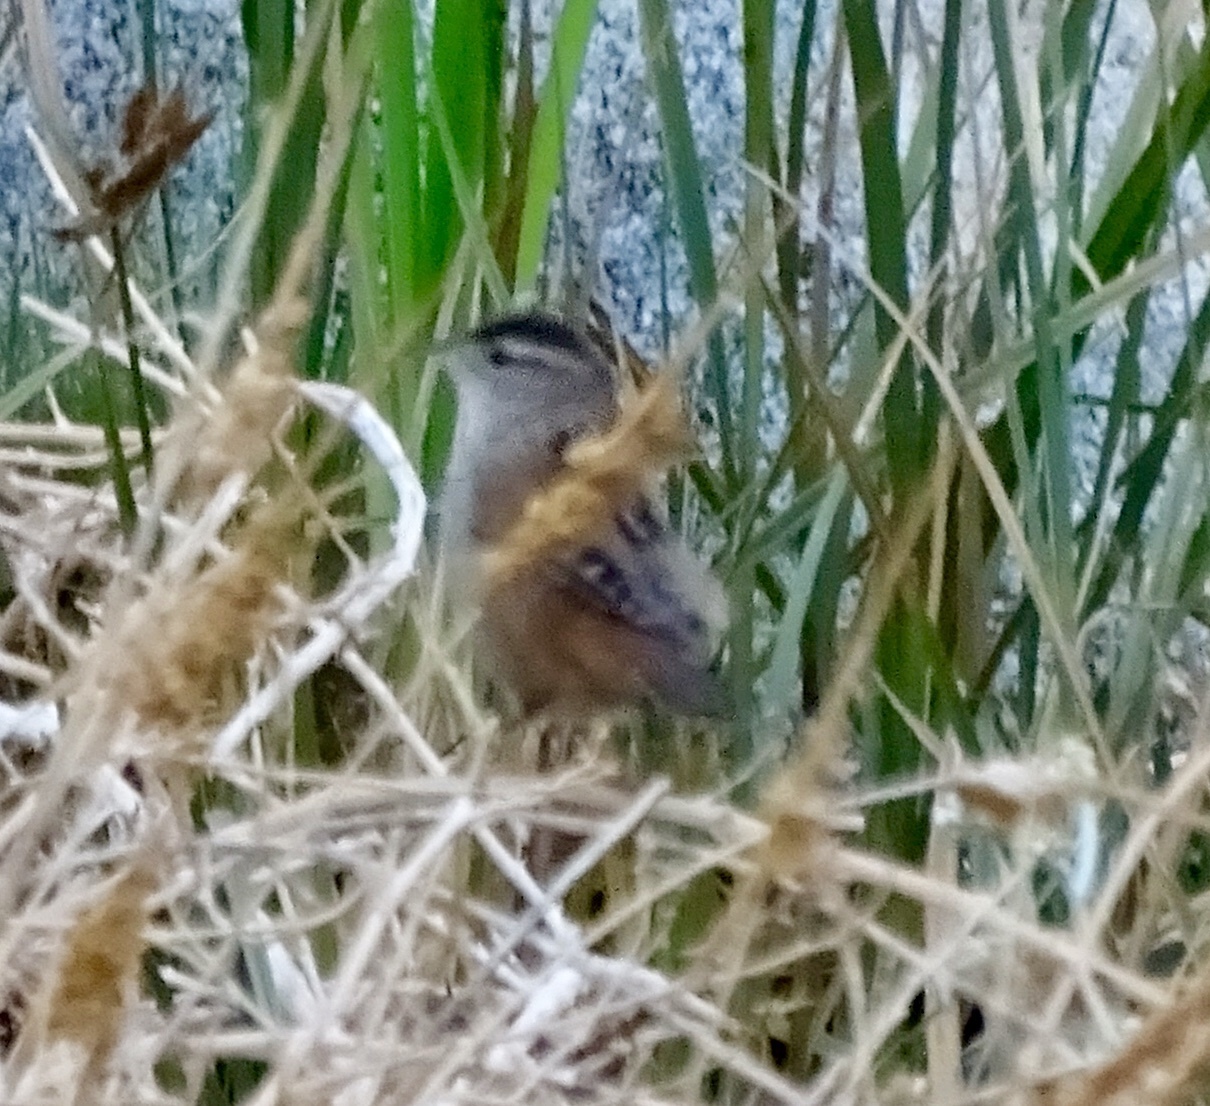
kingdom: Animalia
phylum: Chordata
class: Aves
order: Passeriformes
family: Troglodytidae
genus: Cistothorus
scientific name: Cistothorus palustris
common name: Marsh wren
